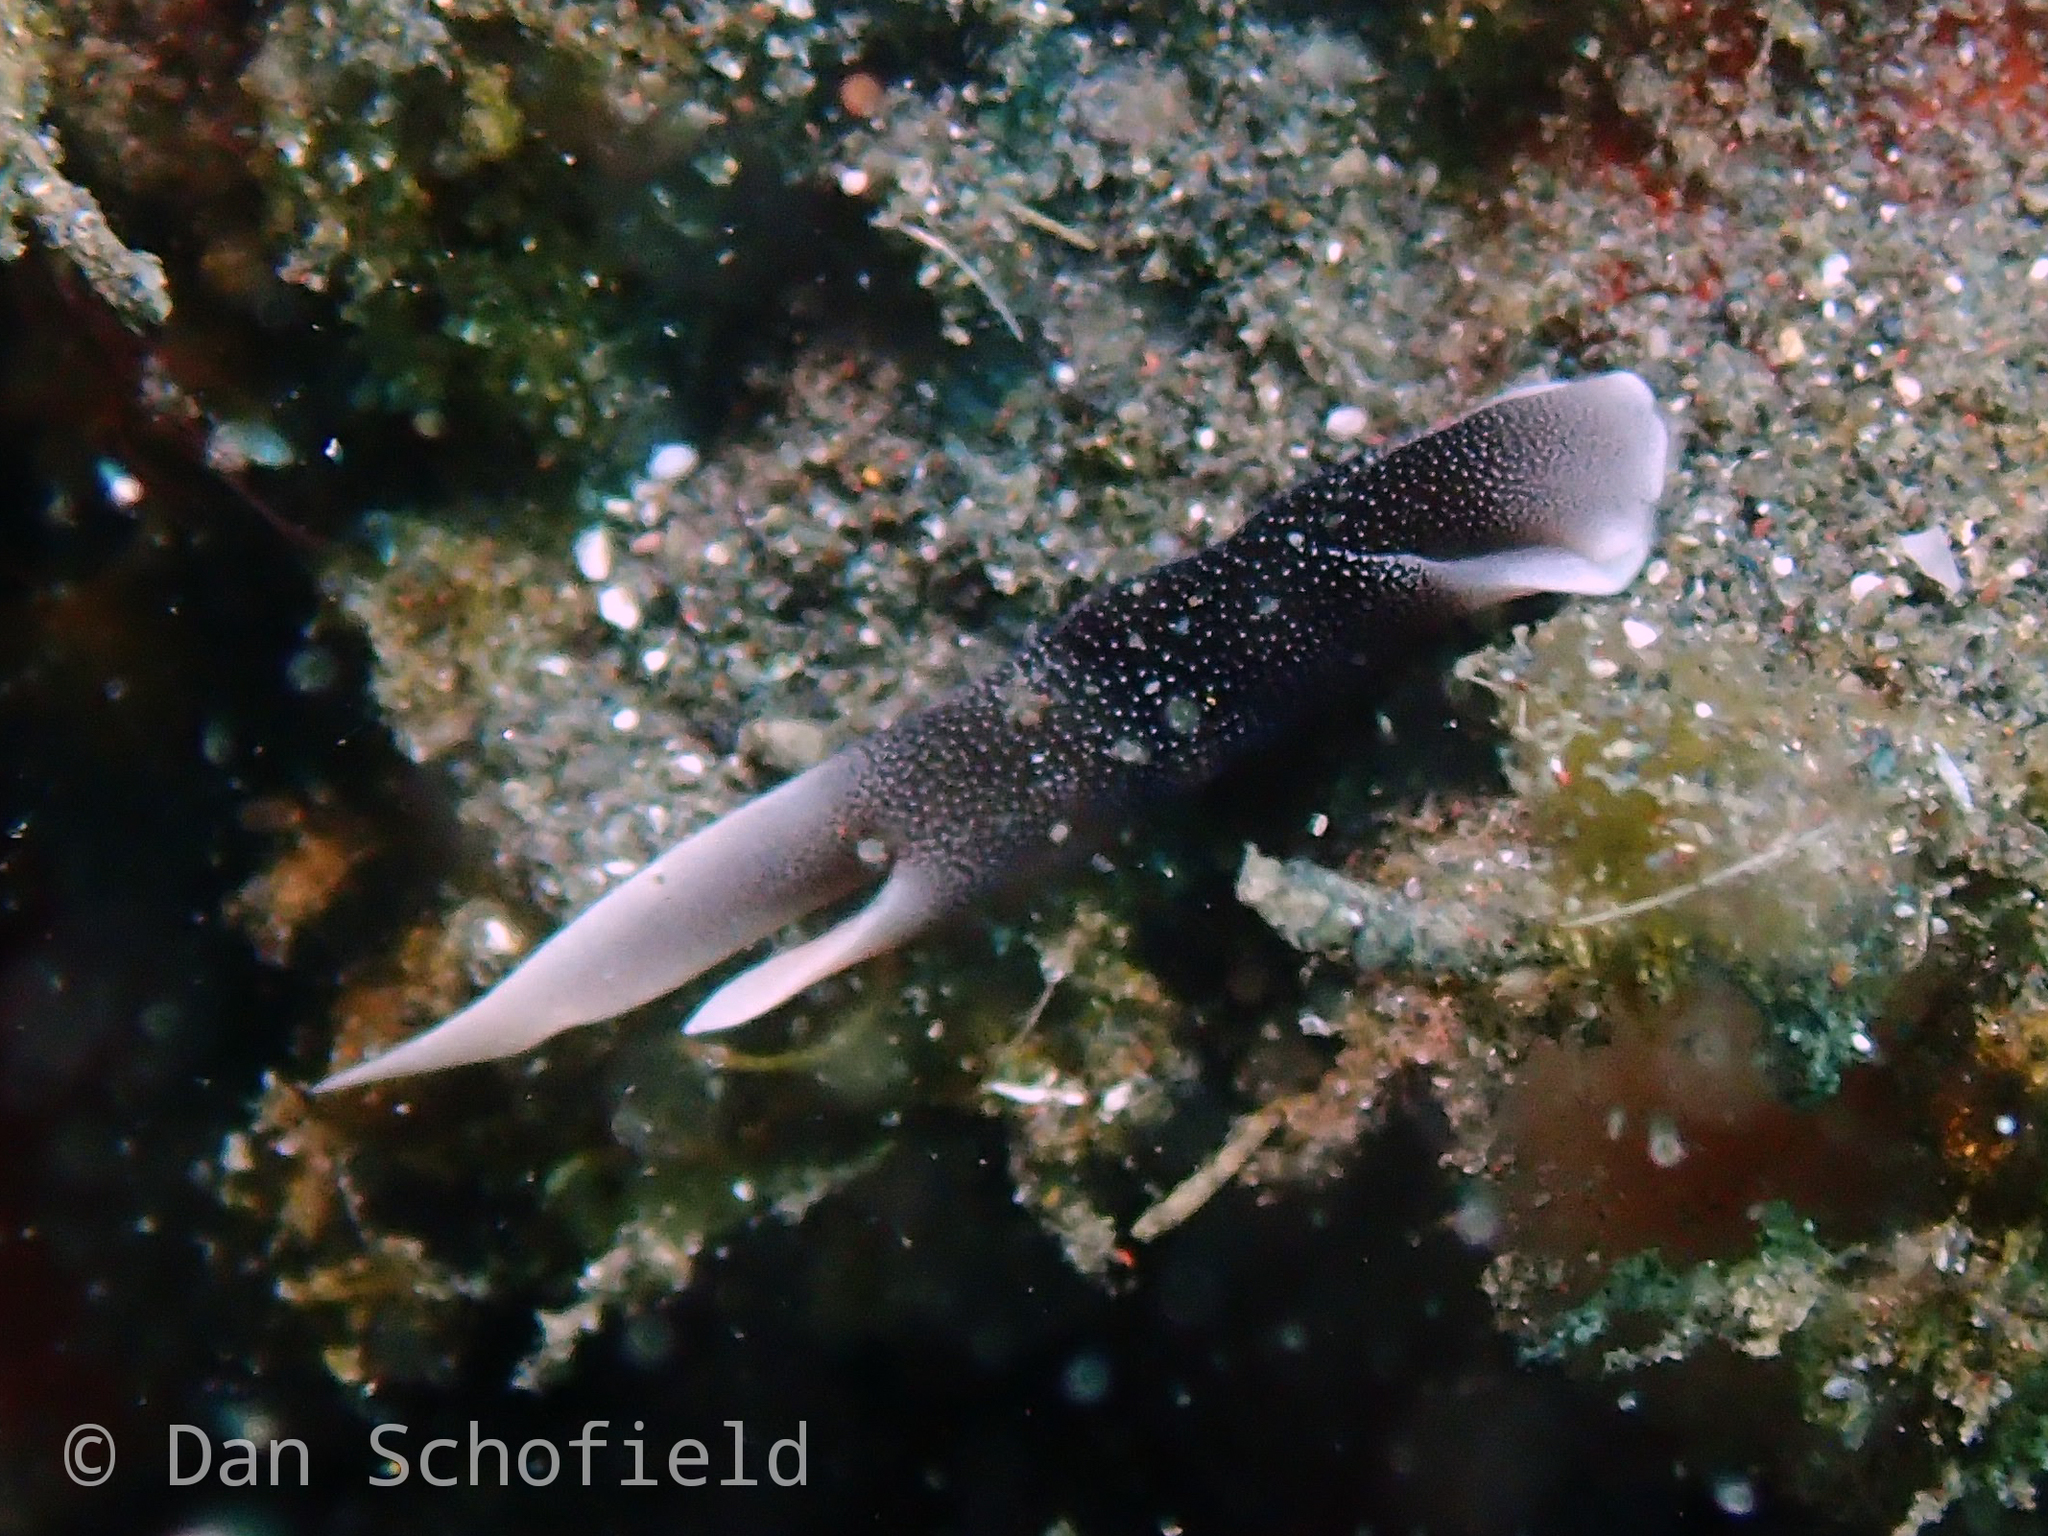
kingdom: Animalia
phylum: Mollusca
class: Gastropoda
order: Cephalaspidea
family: Aglajidae
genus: Chelidonura
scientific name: Chelidonura amoena
